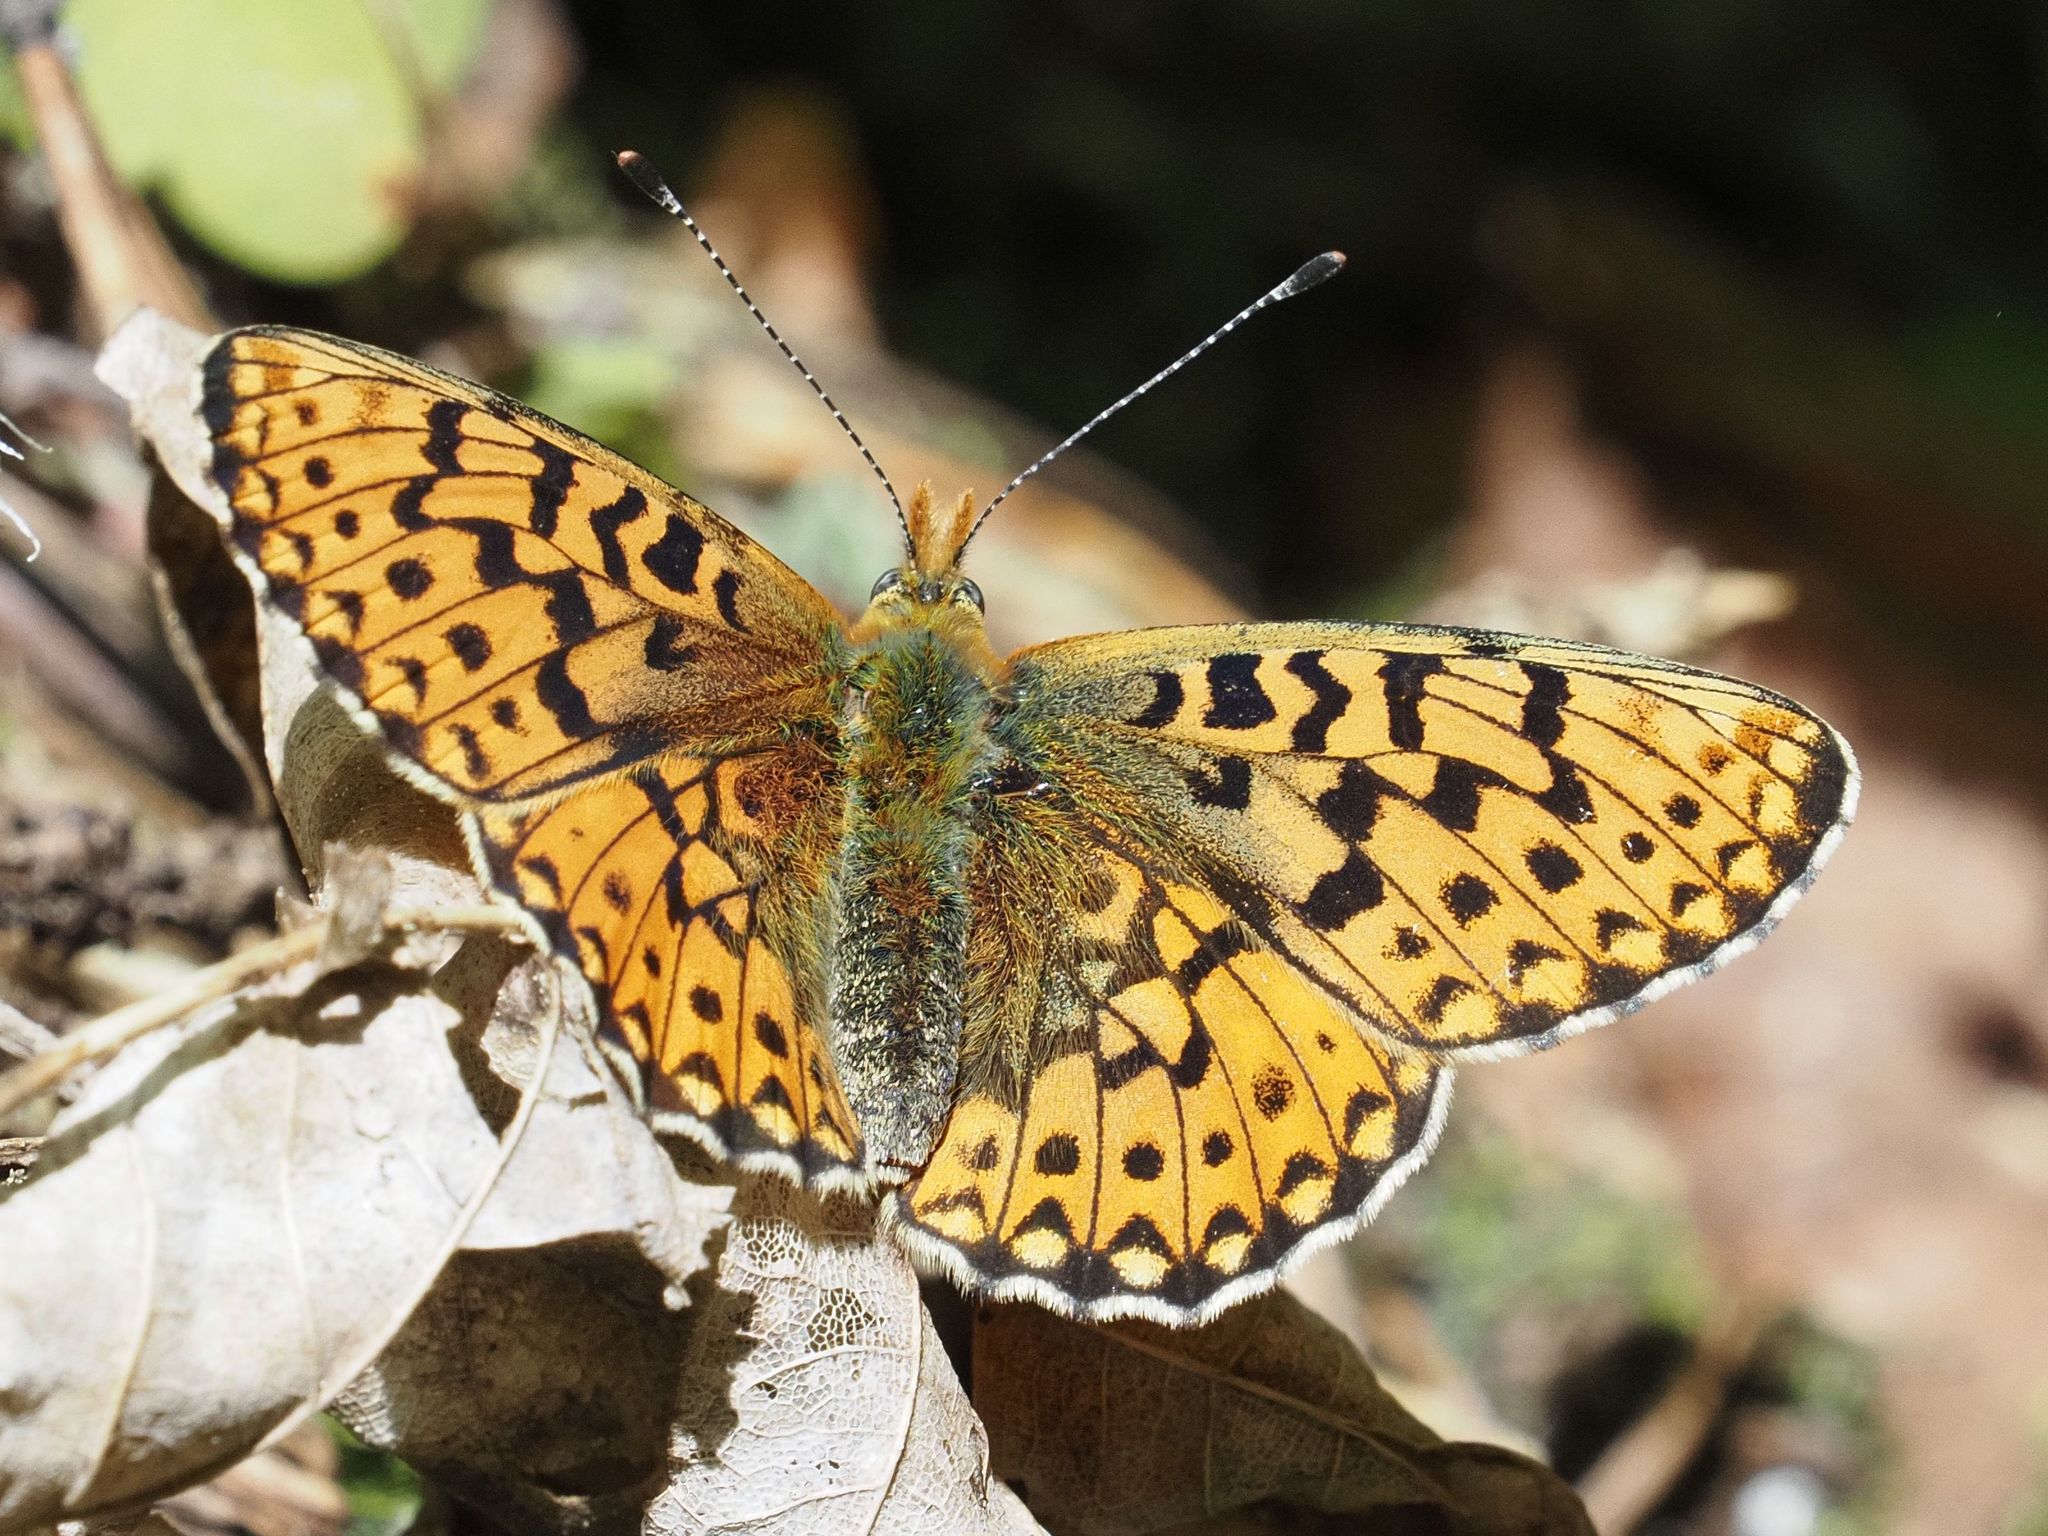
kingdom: Animalia
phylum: Arthropoda
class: Insecta
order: Lepidoptera
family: Nymphalidae
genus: Clossiana
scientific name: Clossiana euphrosyne
